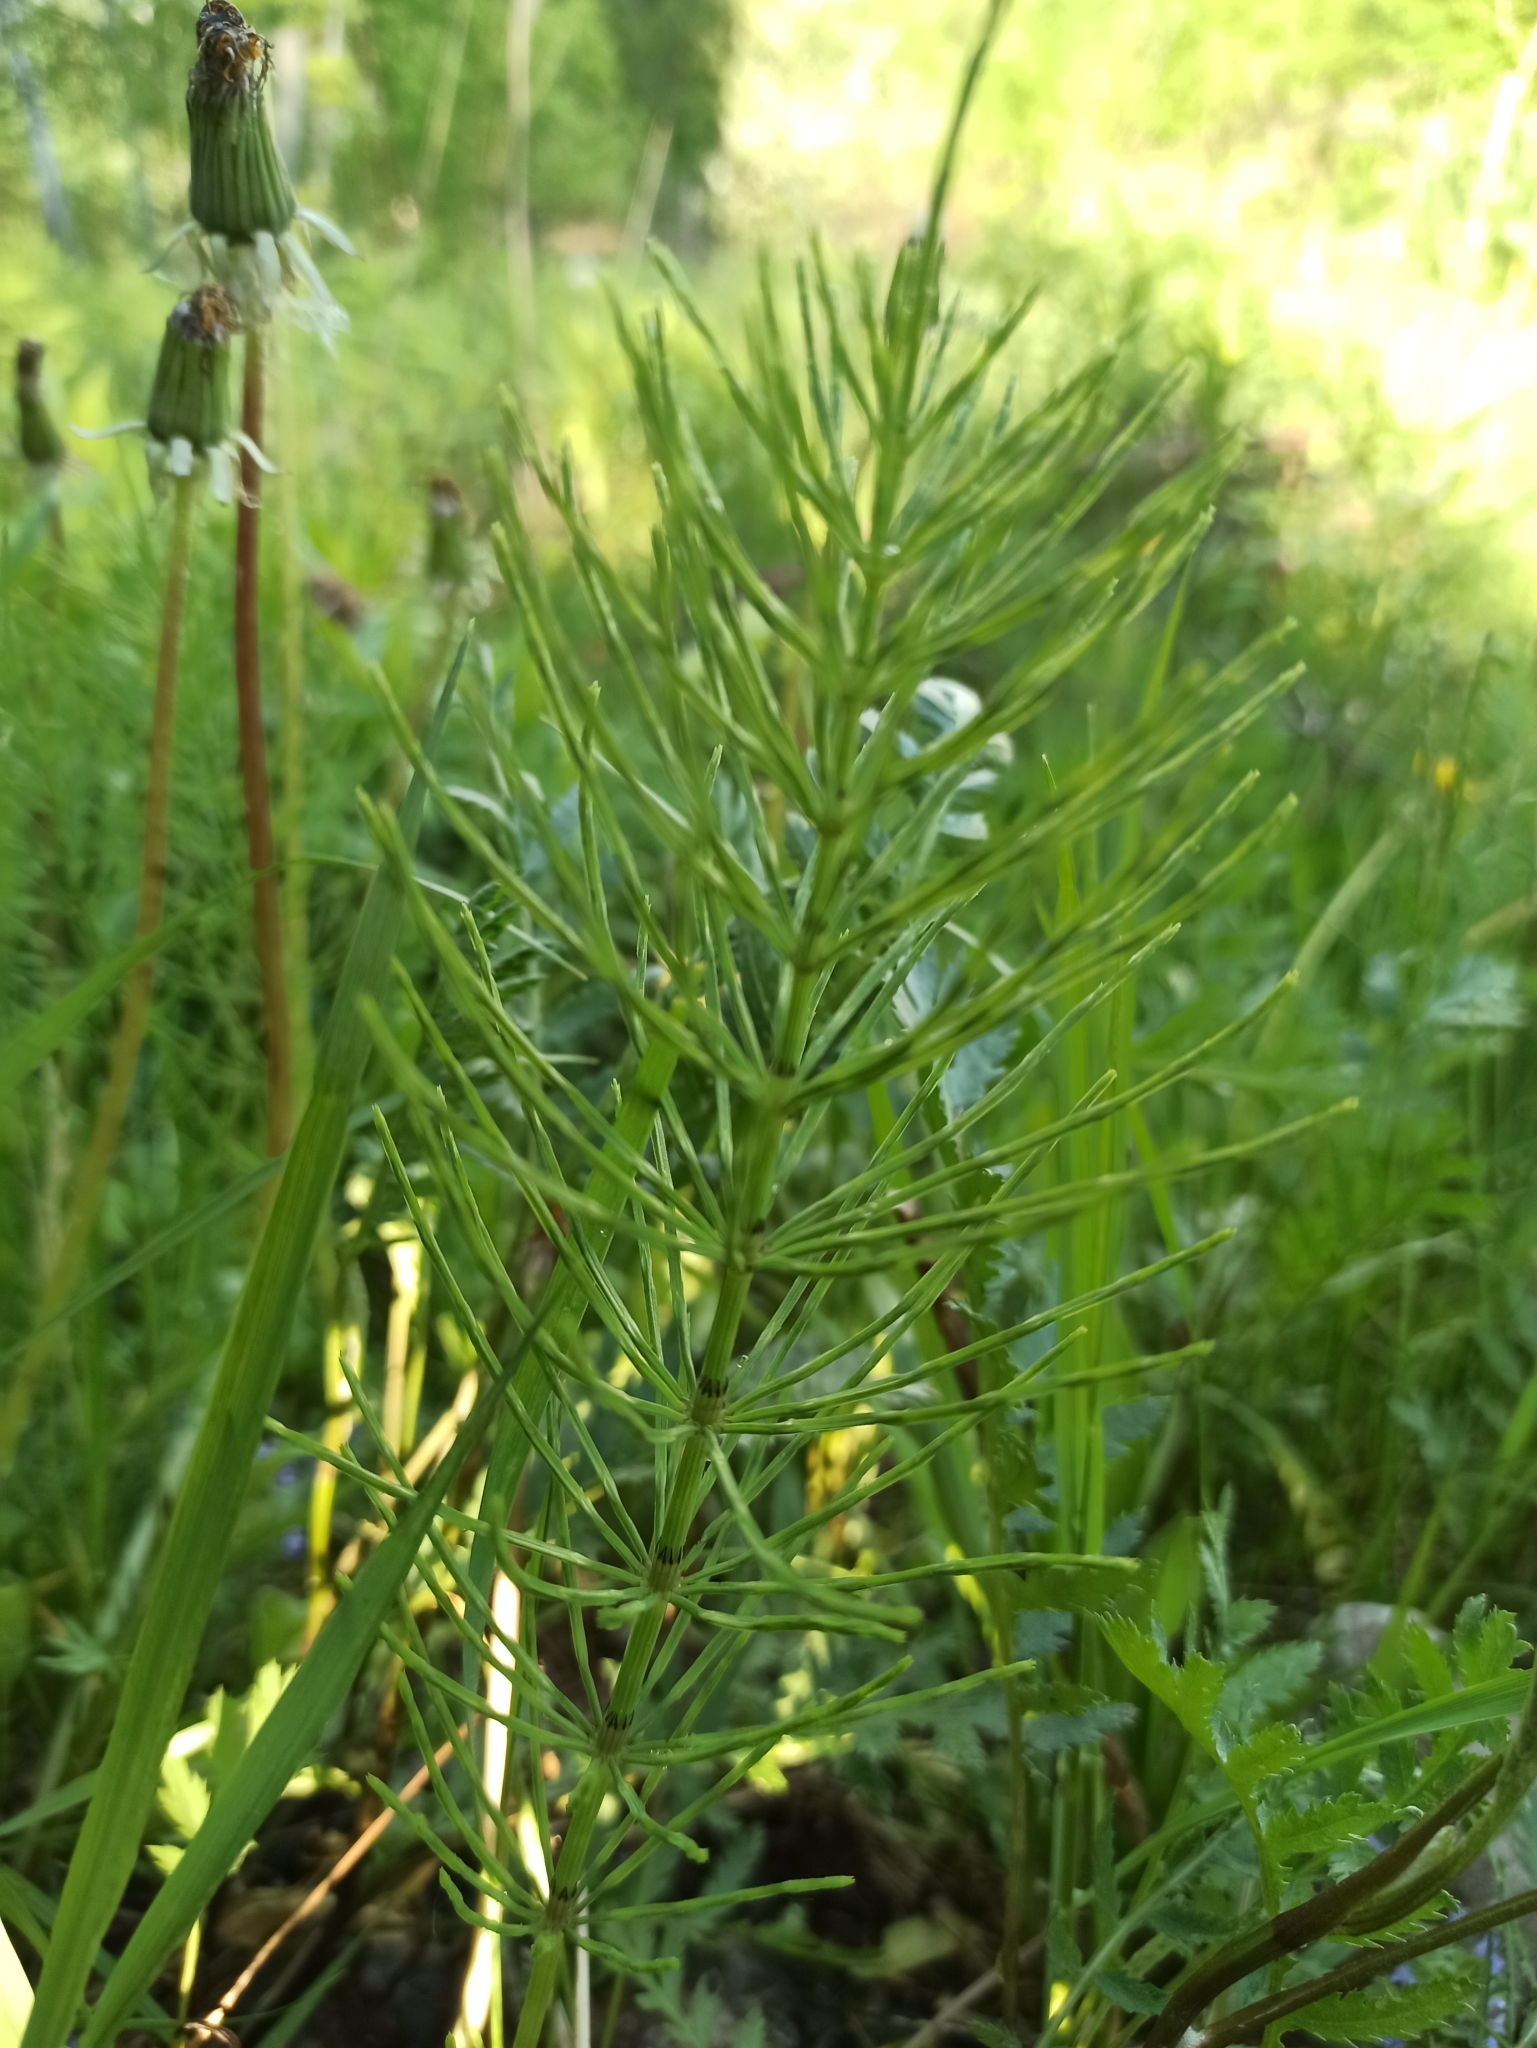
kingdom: Plantae
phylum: Tracheophyta
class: Polypodiopsida
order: Equisetales
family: Equisetaceae
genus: Equisetum
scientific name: Equisetum arvense
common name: Field horsetail
